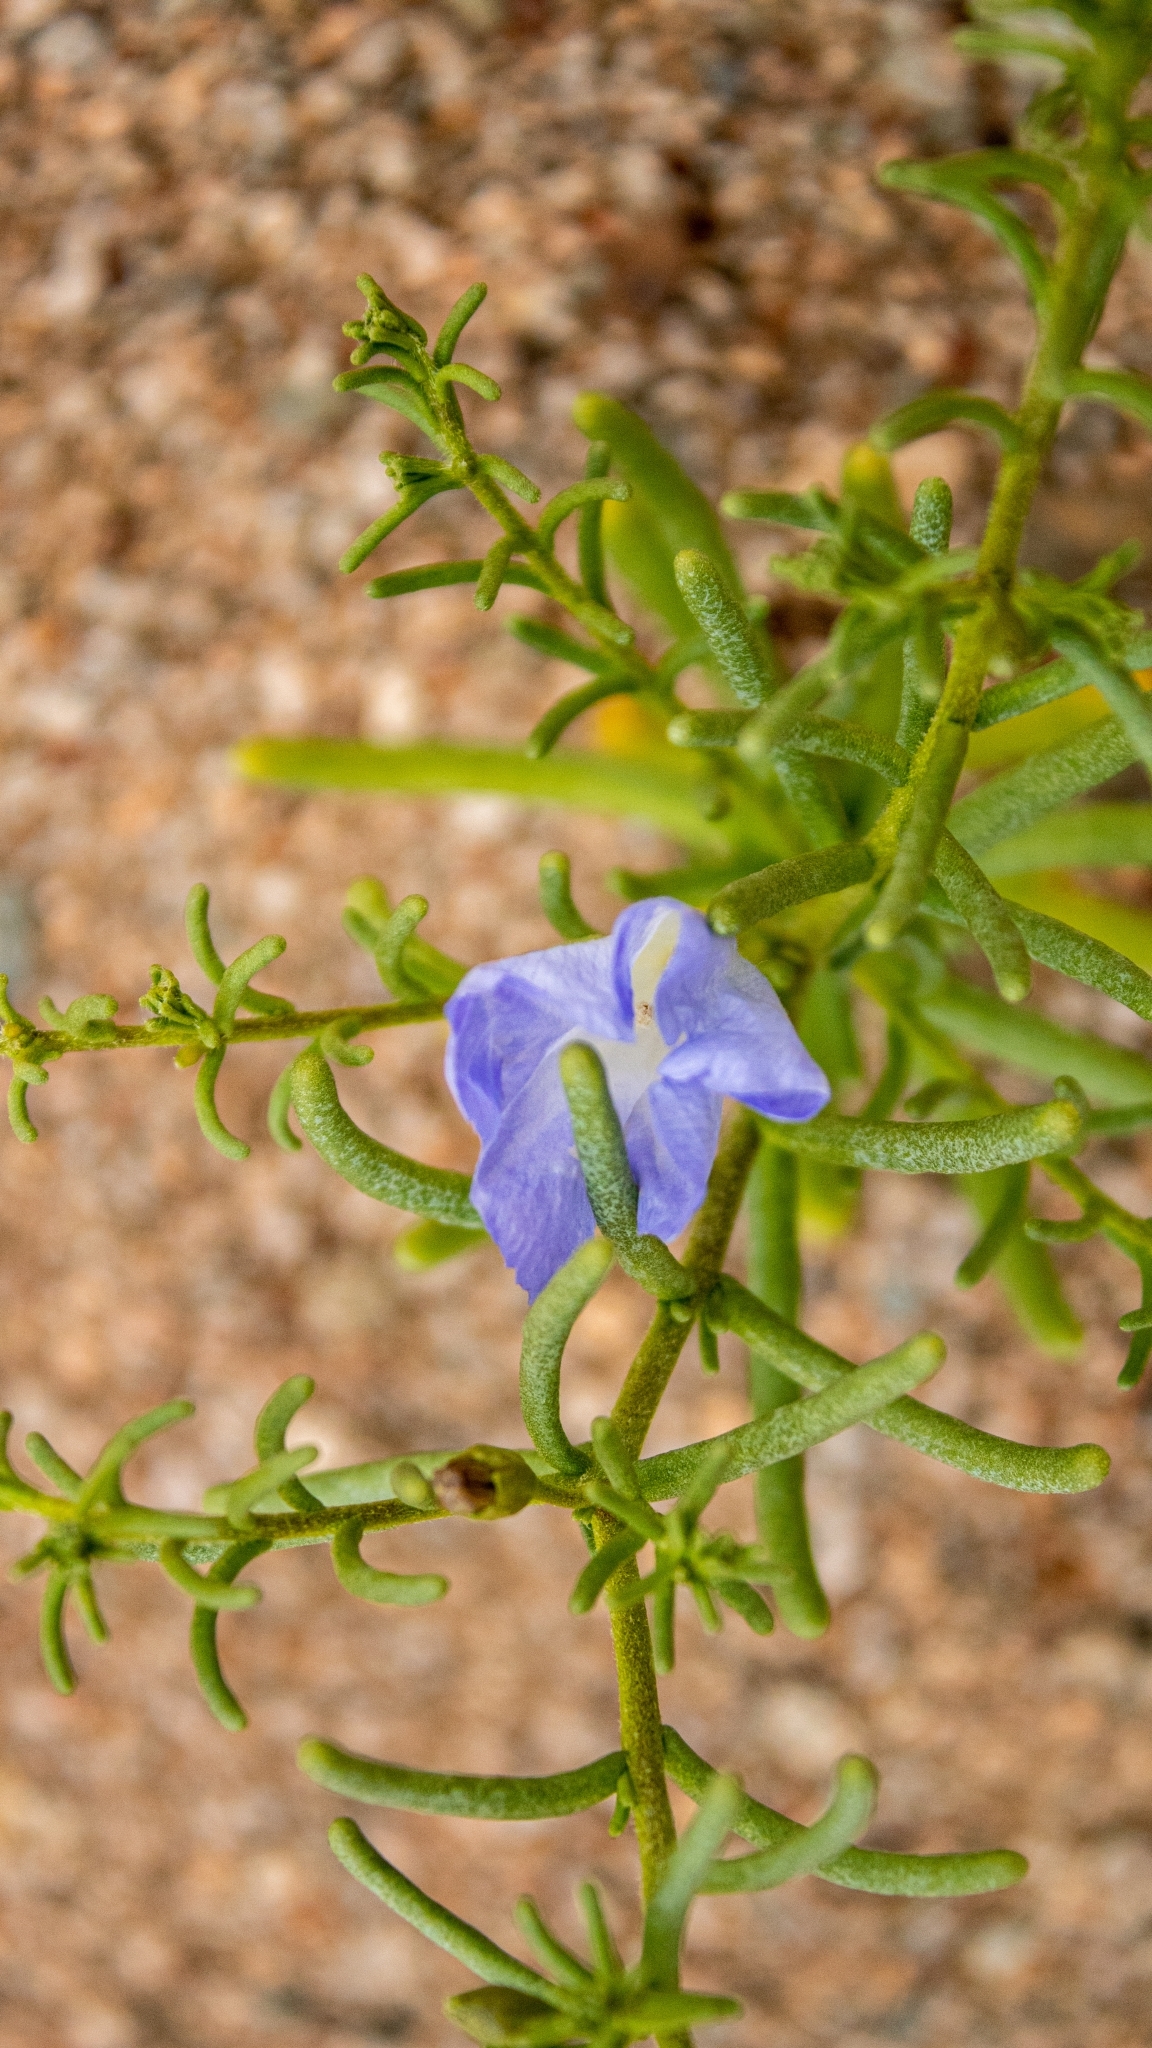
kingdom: Plantae
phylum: Tracheophyta
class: Magnoliopsida
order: Solanales
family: Solanaceae
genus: Nolana
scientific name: Nolana baccata
